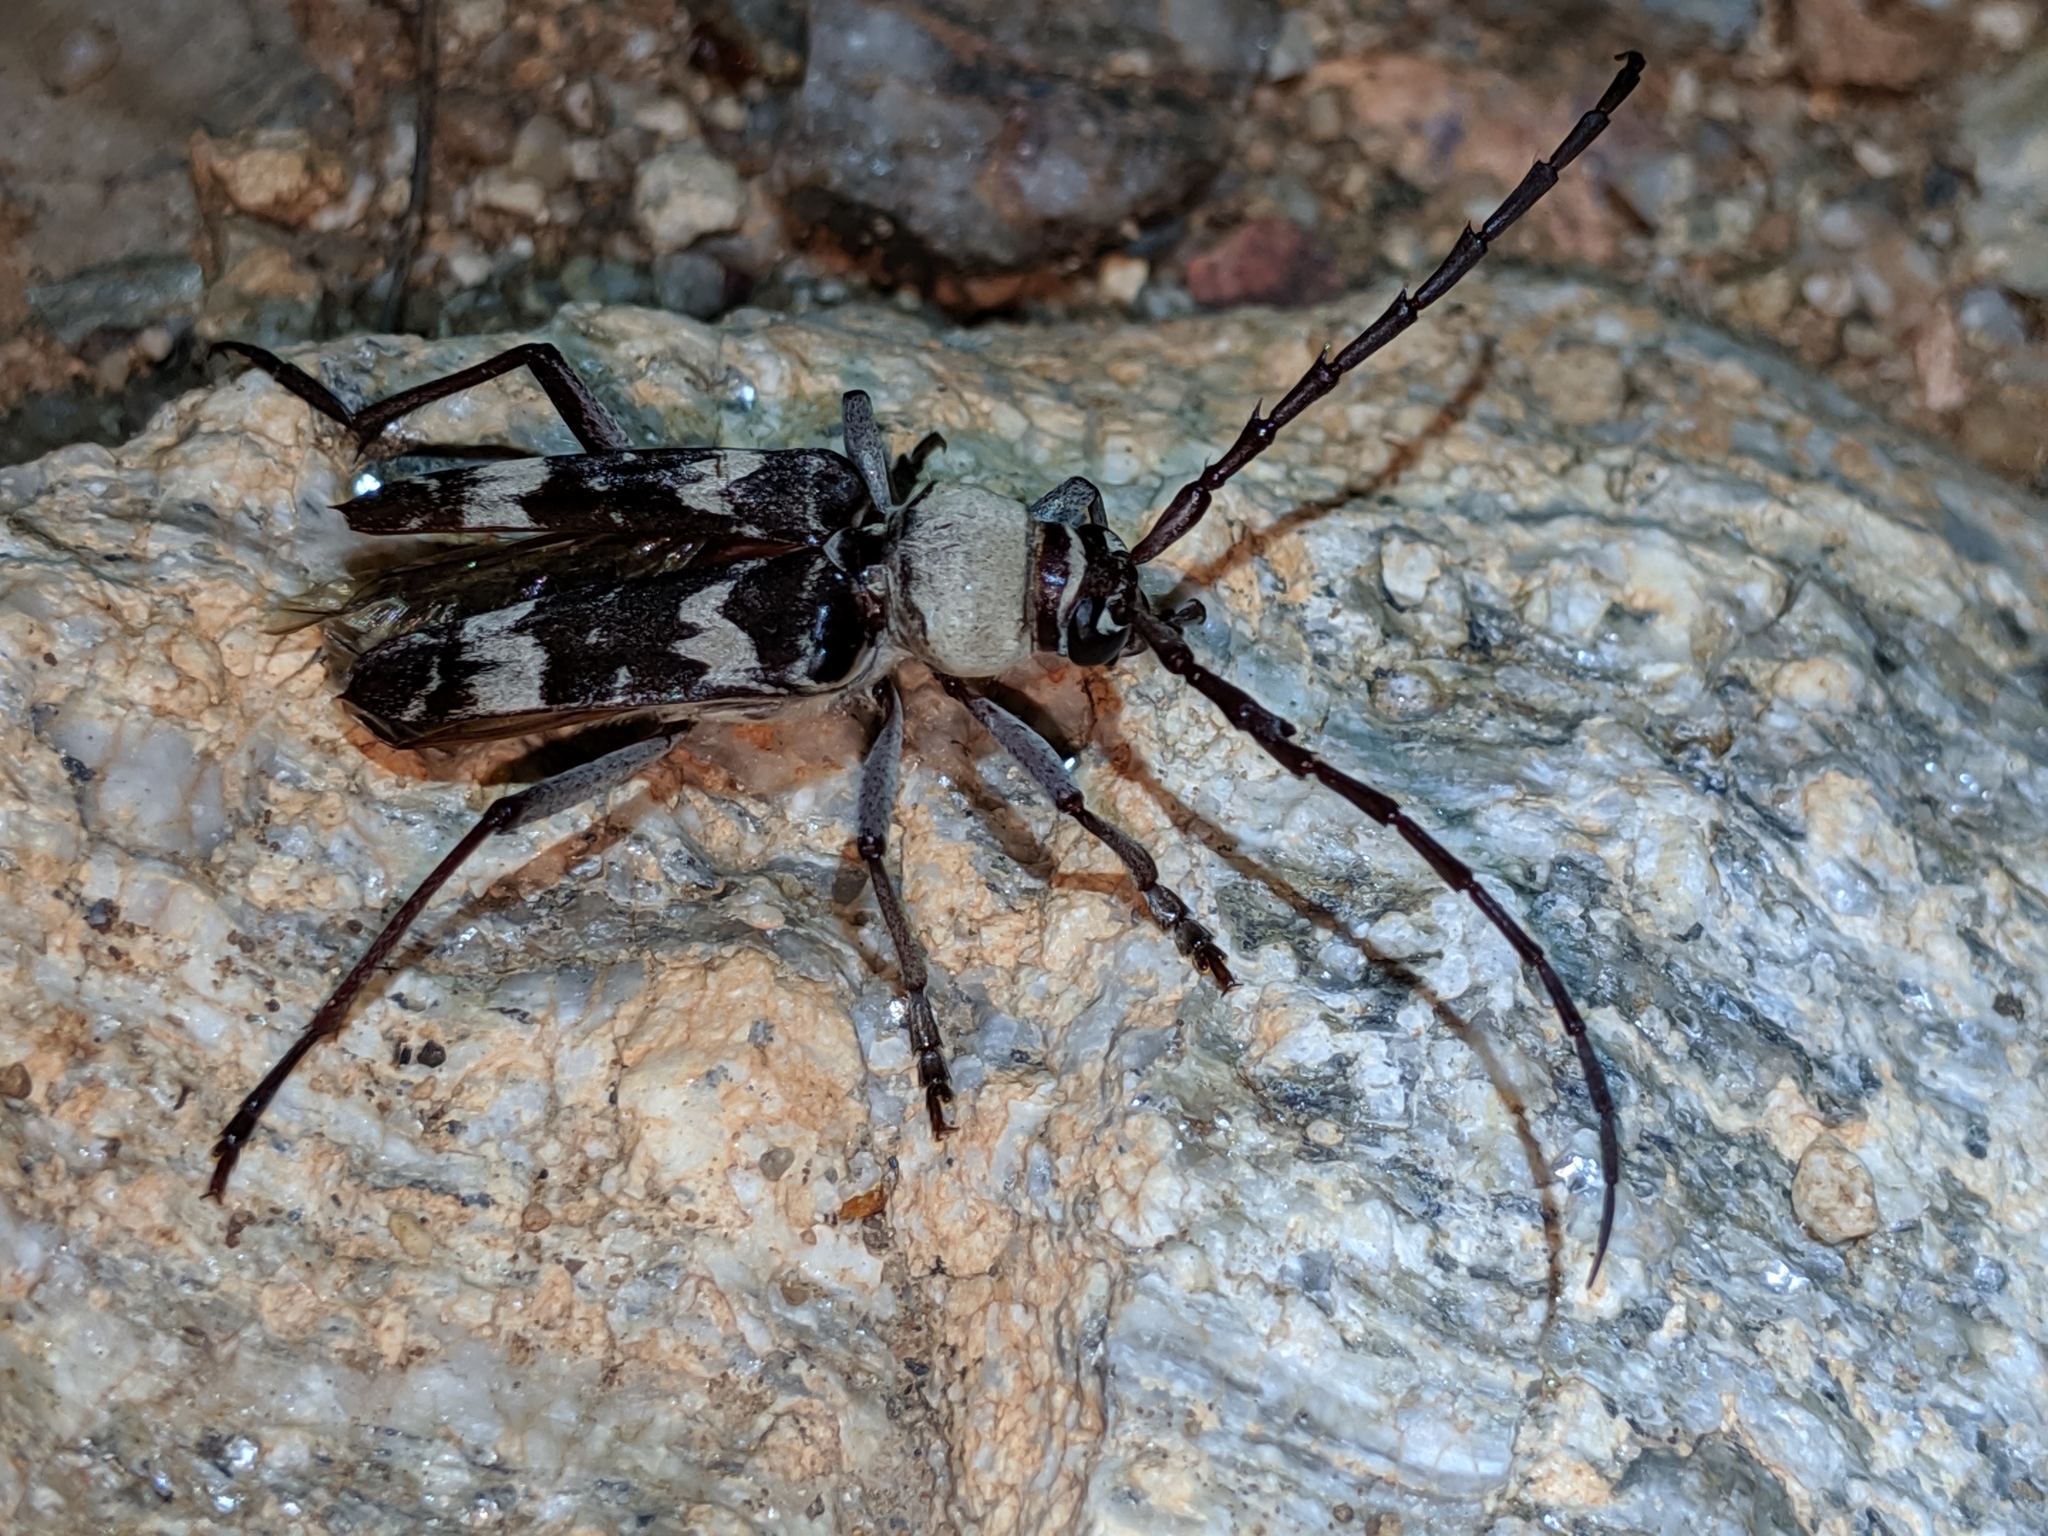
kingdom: Animalia
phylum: Arthropoda
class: Insecta
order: Coleoptera
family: Cerambycidae
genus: Megacyllene
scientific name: Megacyllene antennata
